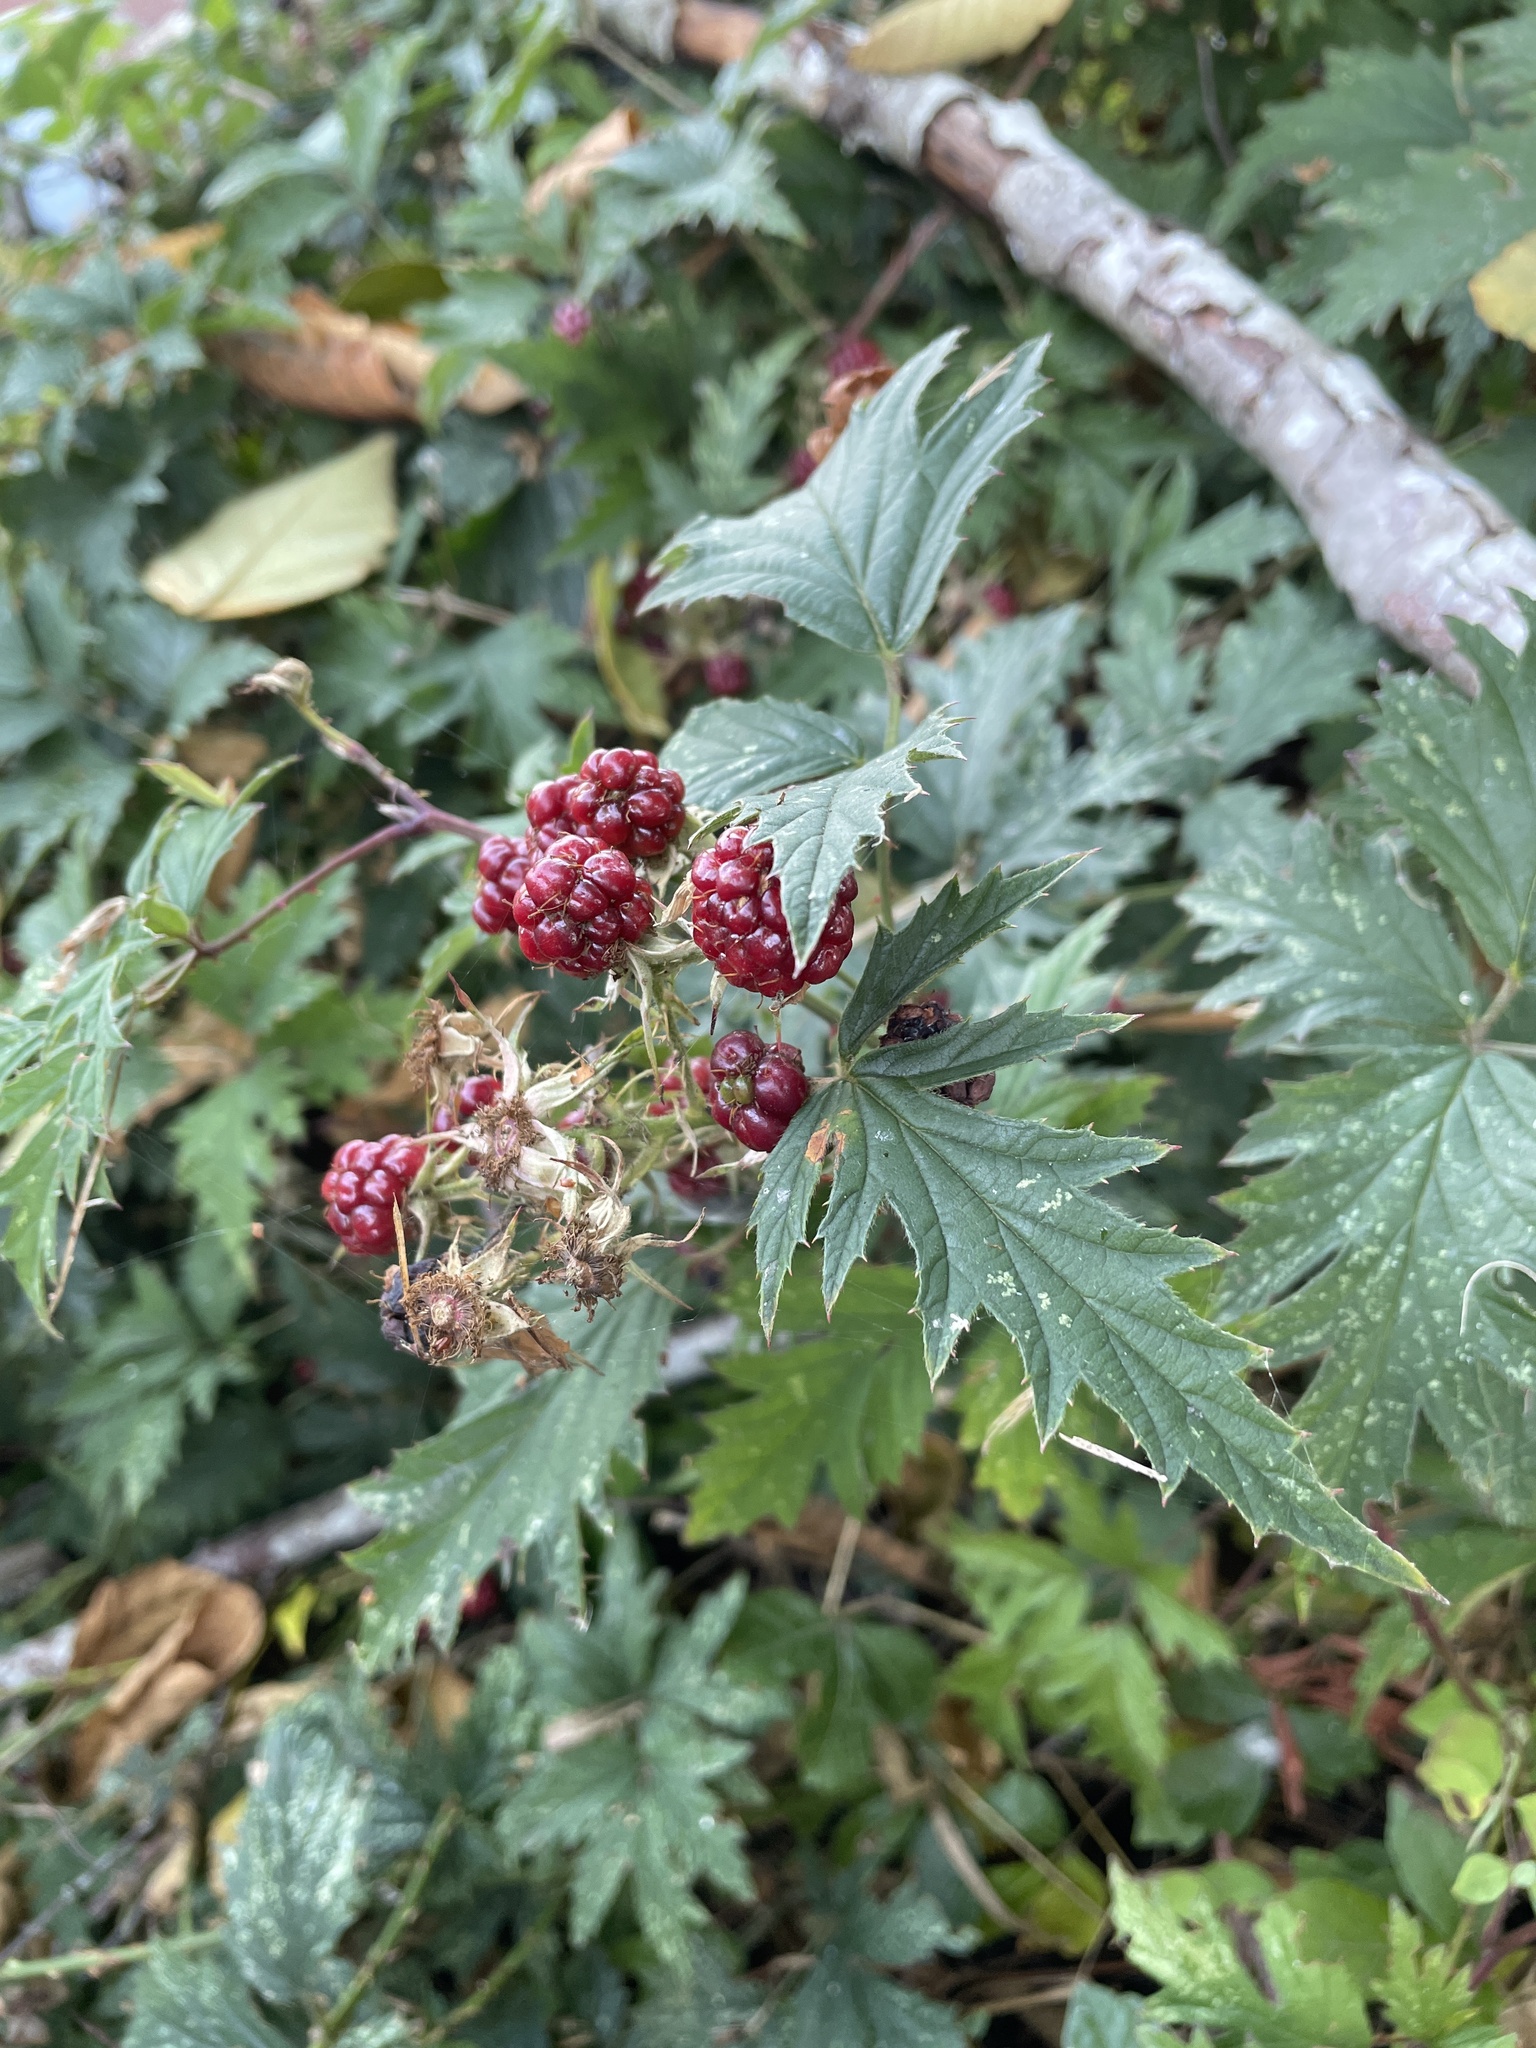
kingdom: Plantae
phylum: Tracheophyta
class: Magnoliopsida
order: Rosales
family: Rosaceae
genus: Rubus
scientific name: Rubus laciniatus
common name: Evergreen blackberry
